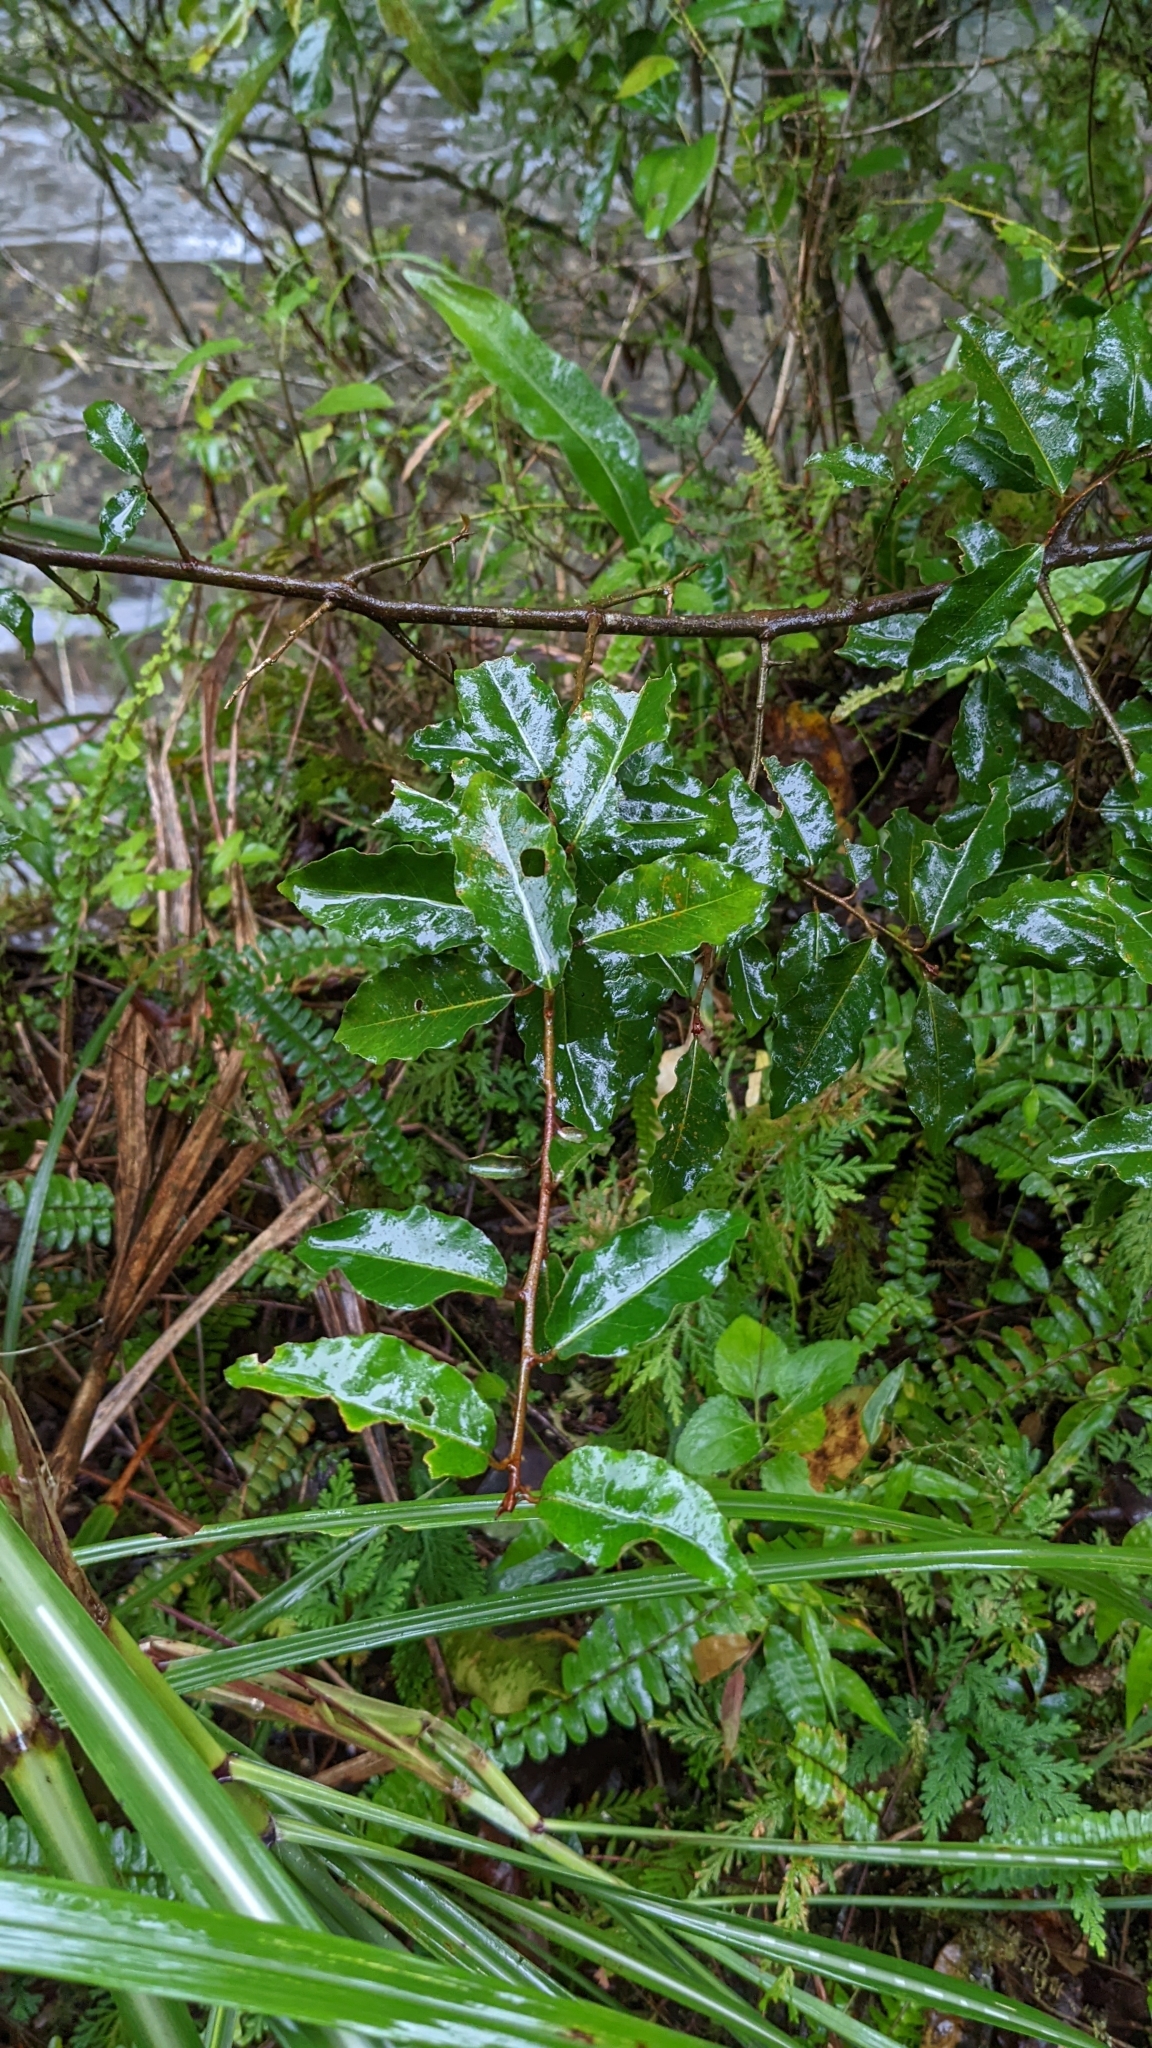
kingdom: Plantae
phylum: Tracheophyta
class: Magnoliopsida
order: Rosales
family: Elaeagnaceae
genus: Elaeagnus
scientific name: Elaeagnus thunbergii
